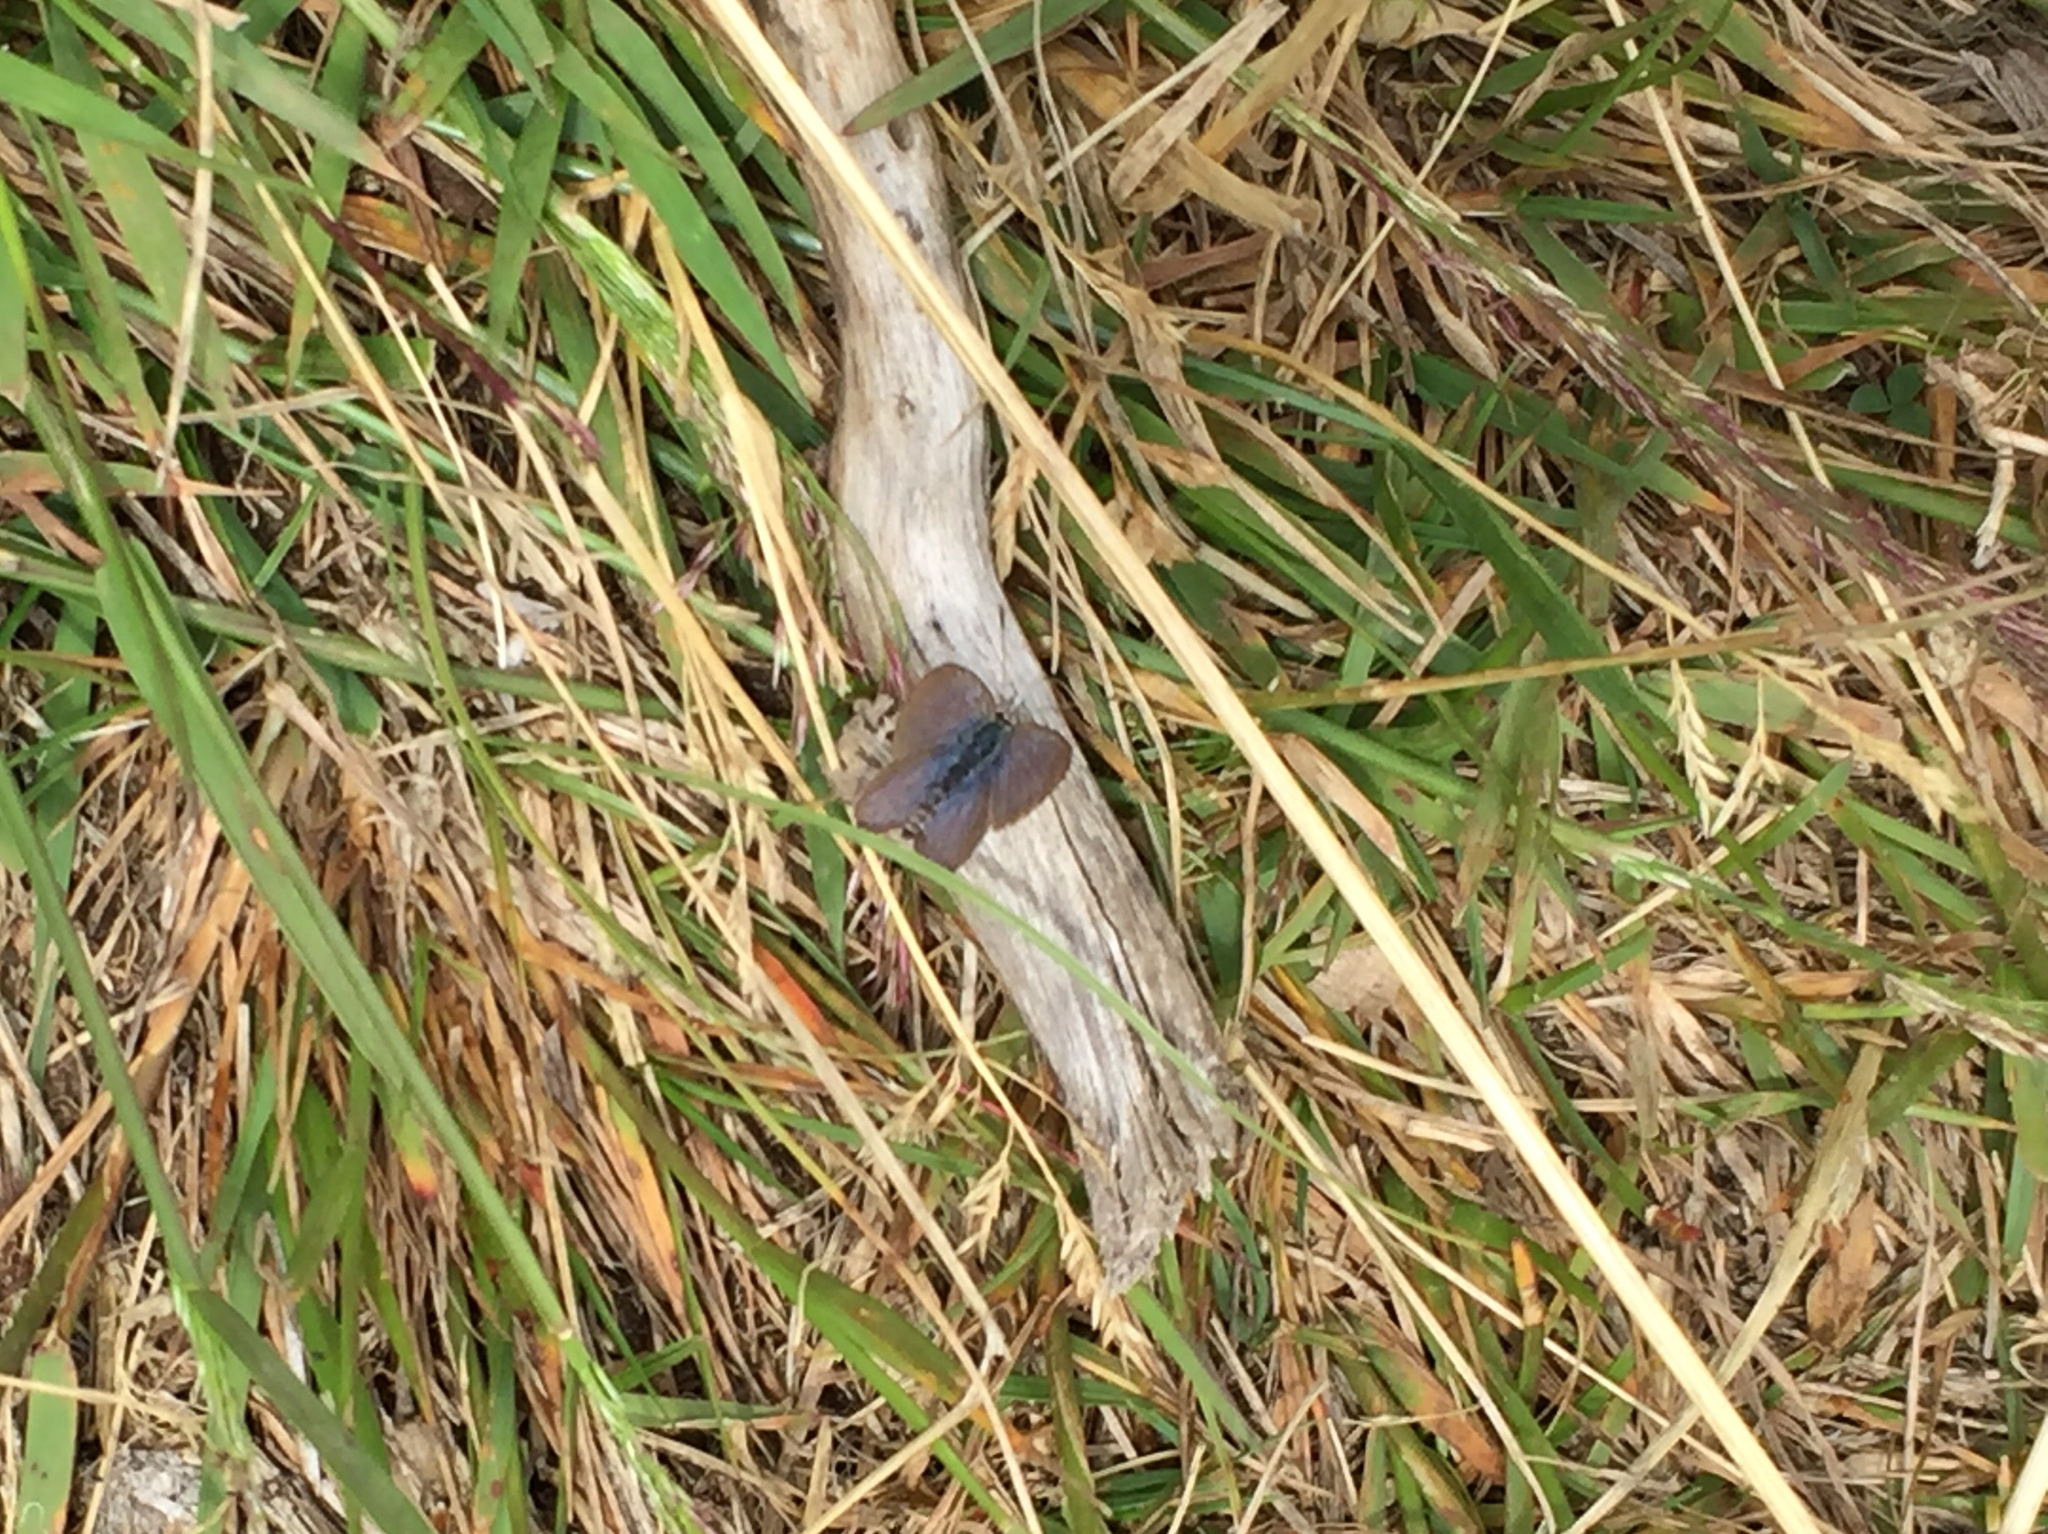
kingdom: Animalia
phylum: Arthropoda
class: Insecta
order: Lepidoptera
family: Lycaenidae
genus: Zizina
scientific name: Zizina
